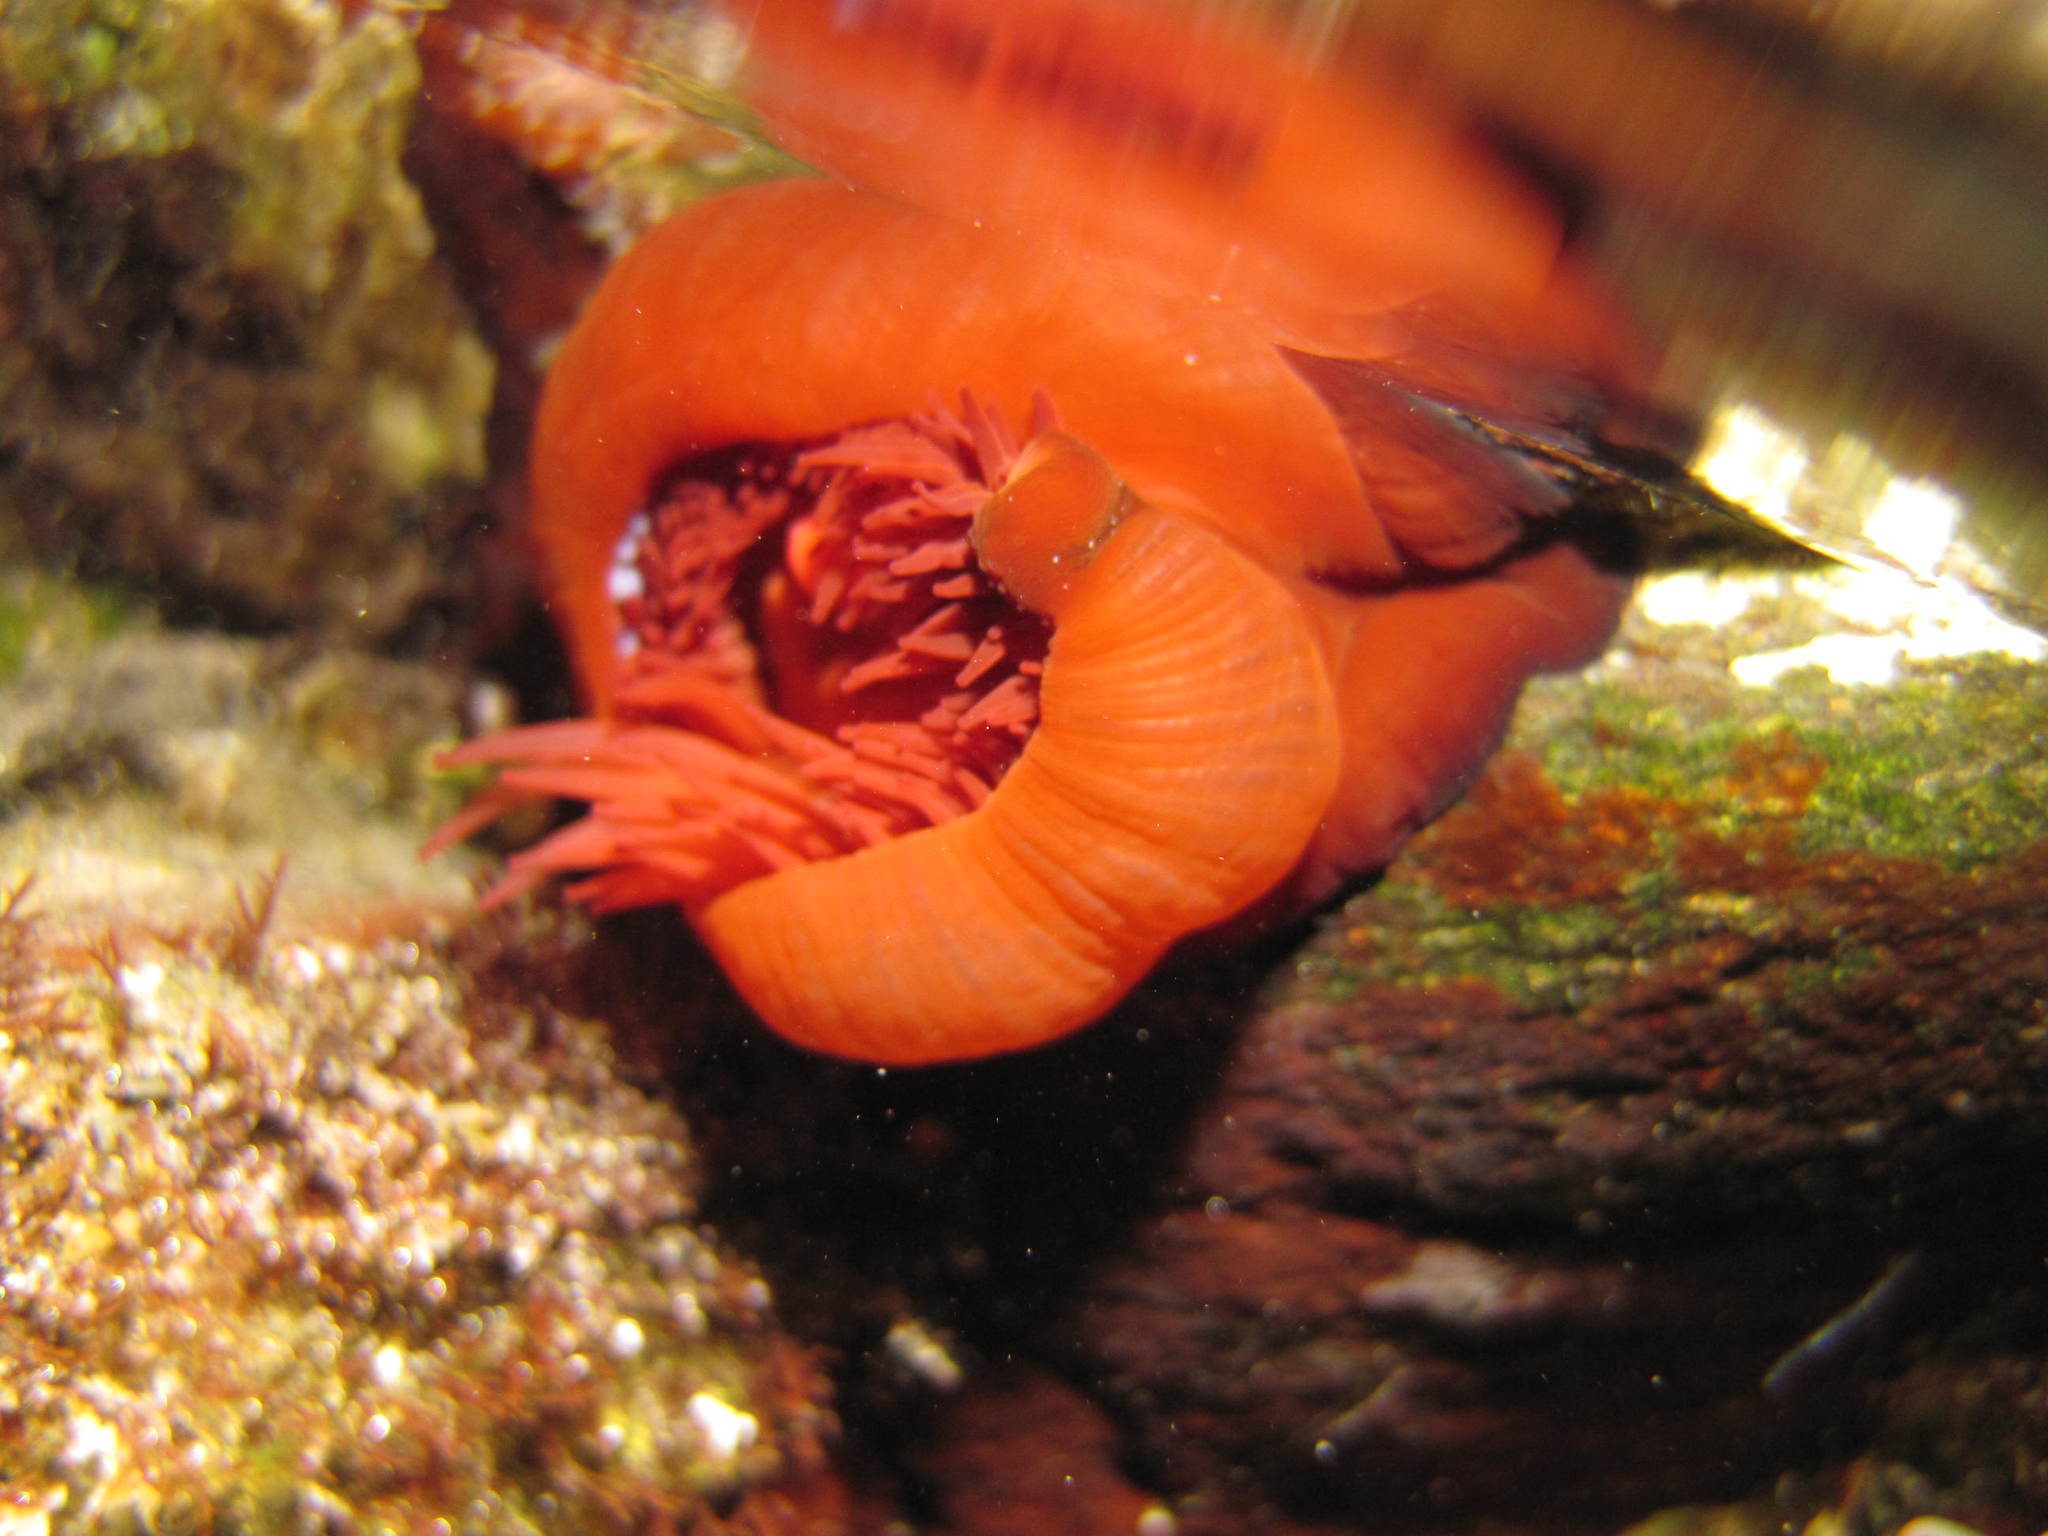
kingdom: Animalia
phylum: Cnidaria
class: Anthozoa
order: Actiniaria
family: Actiniidae
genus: Actinia
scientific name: Actinia mediterranea
